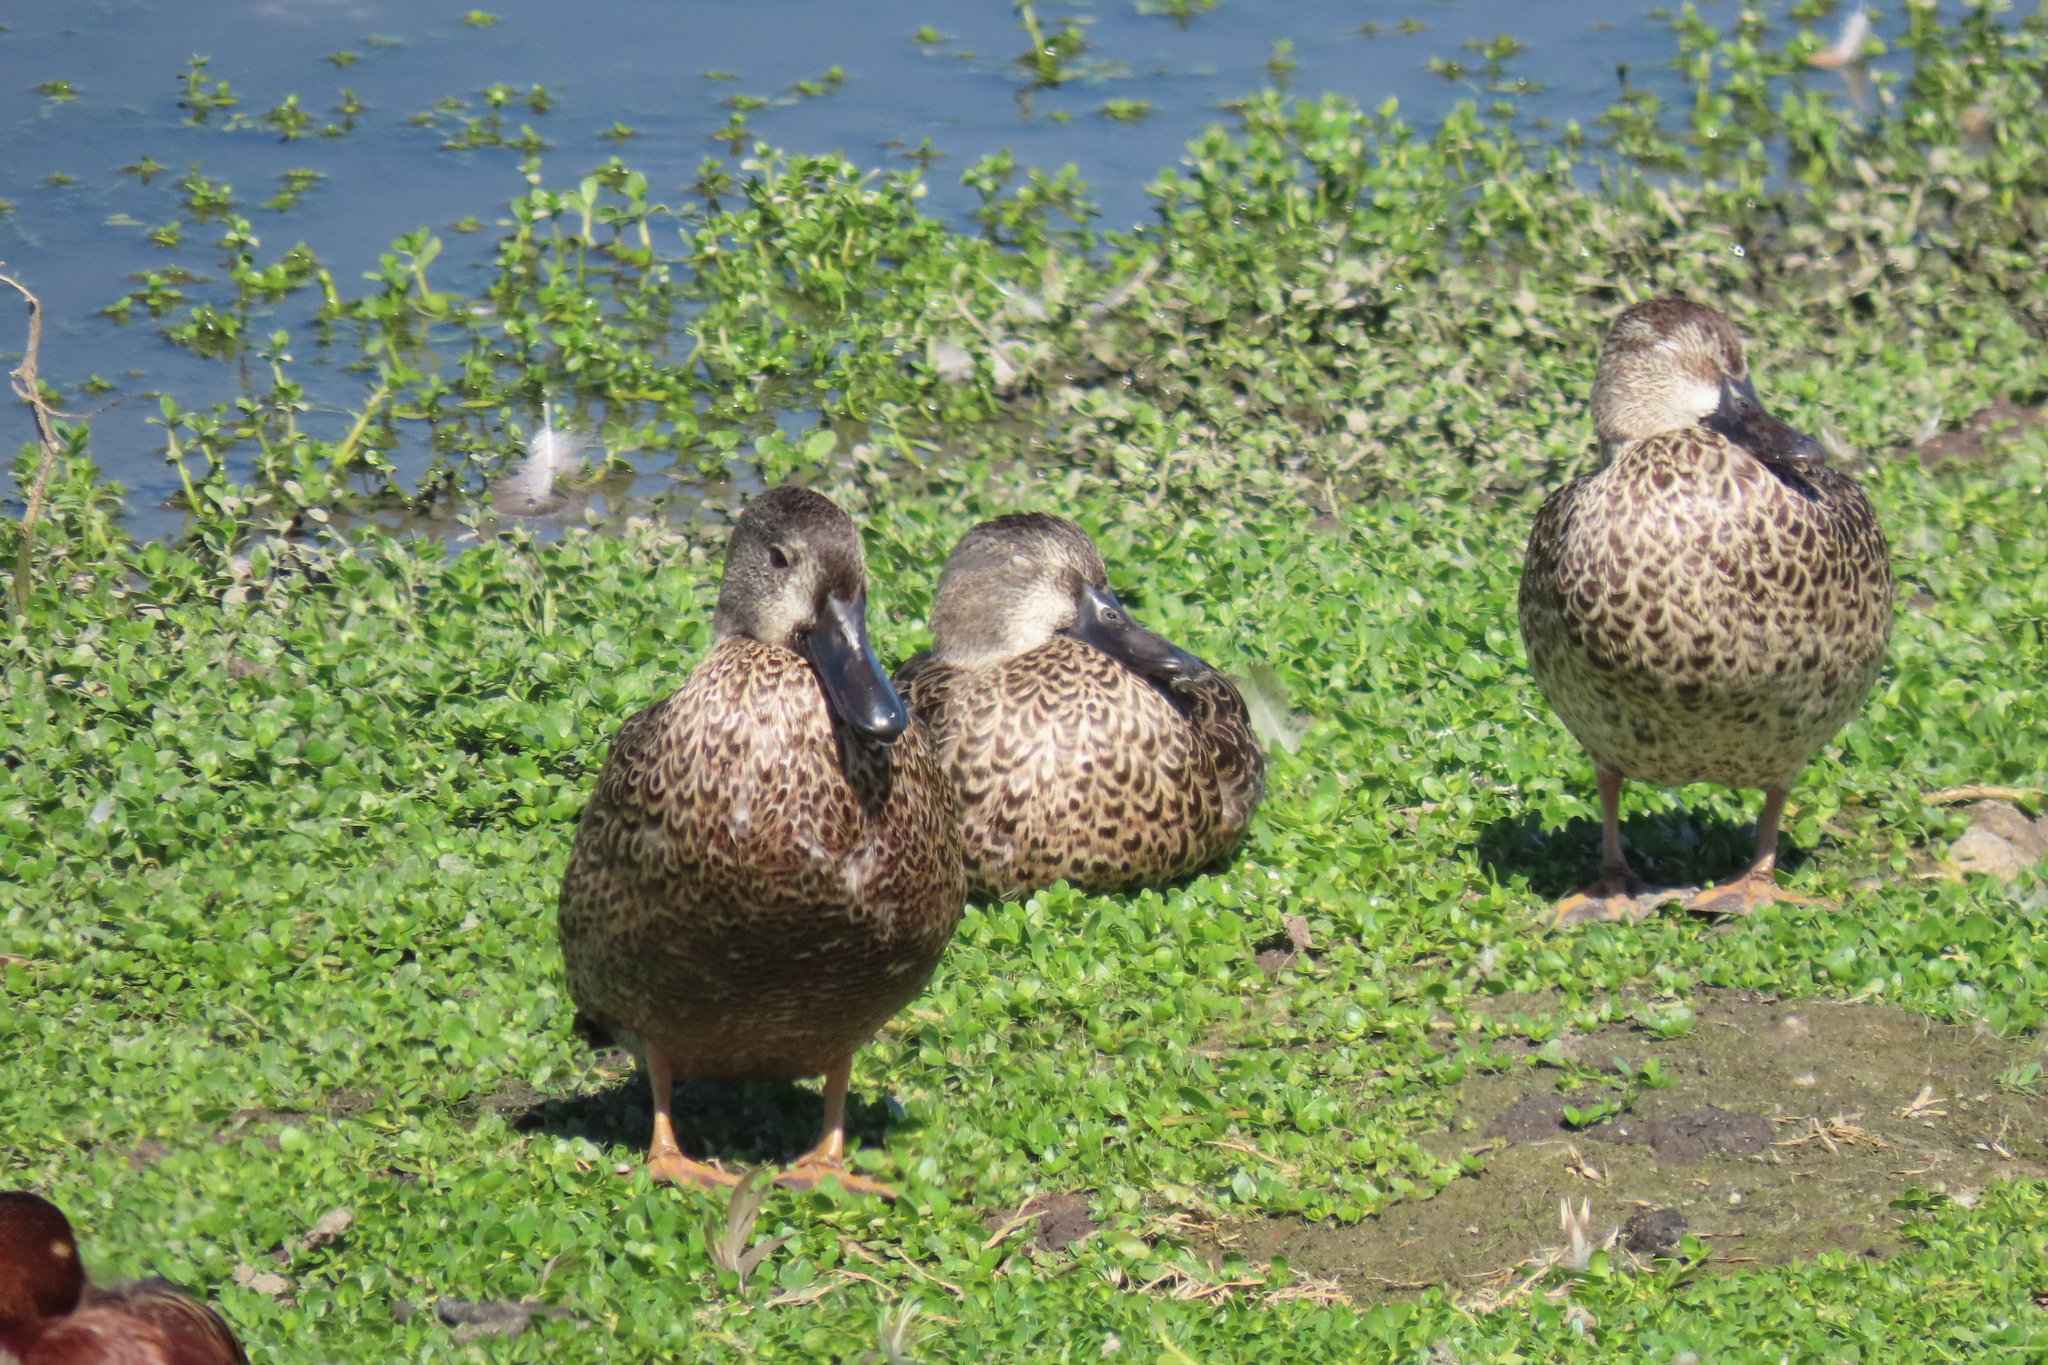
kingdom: Animalia
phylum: Chordata
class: Aves
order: Anseriformes
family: Anatidae
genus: Spatula
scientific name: Spatula discors
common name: Blue-winged teal
